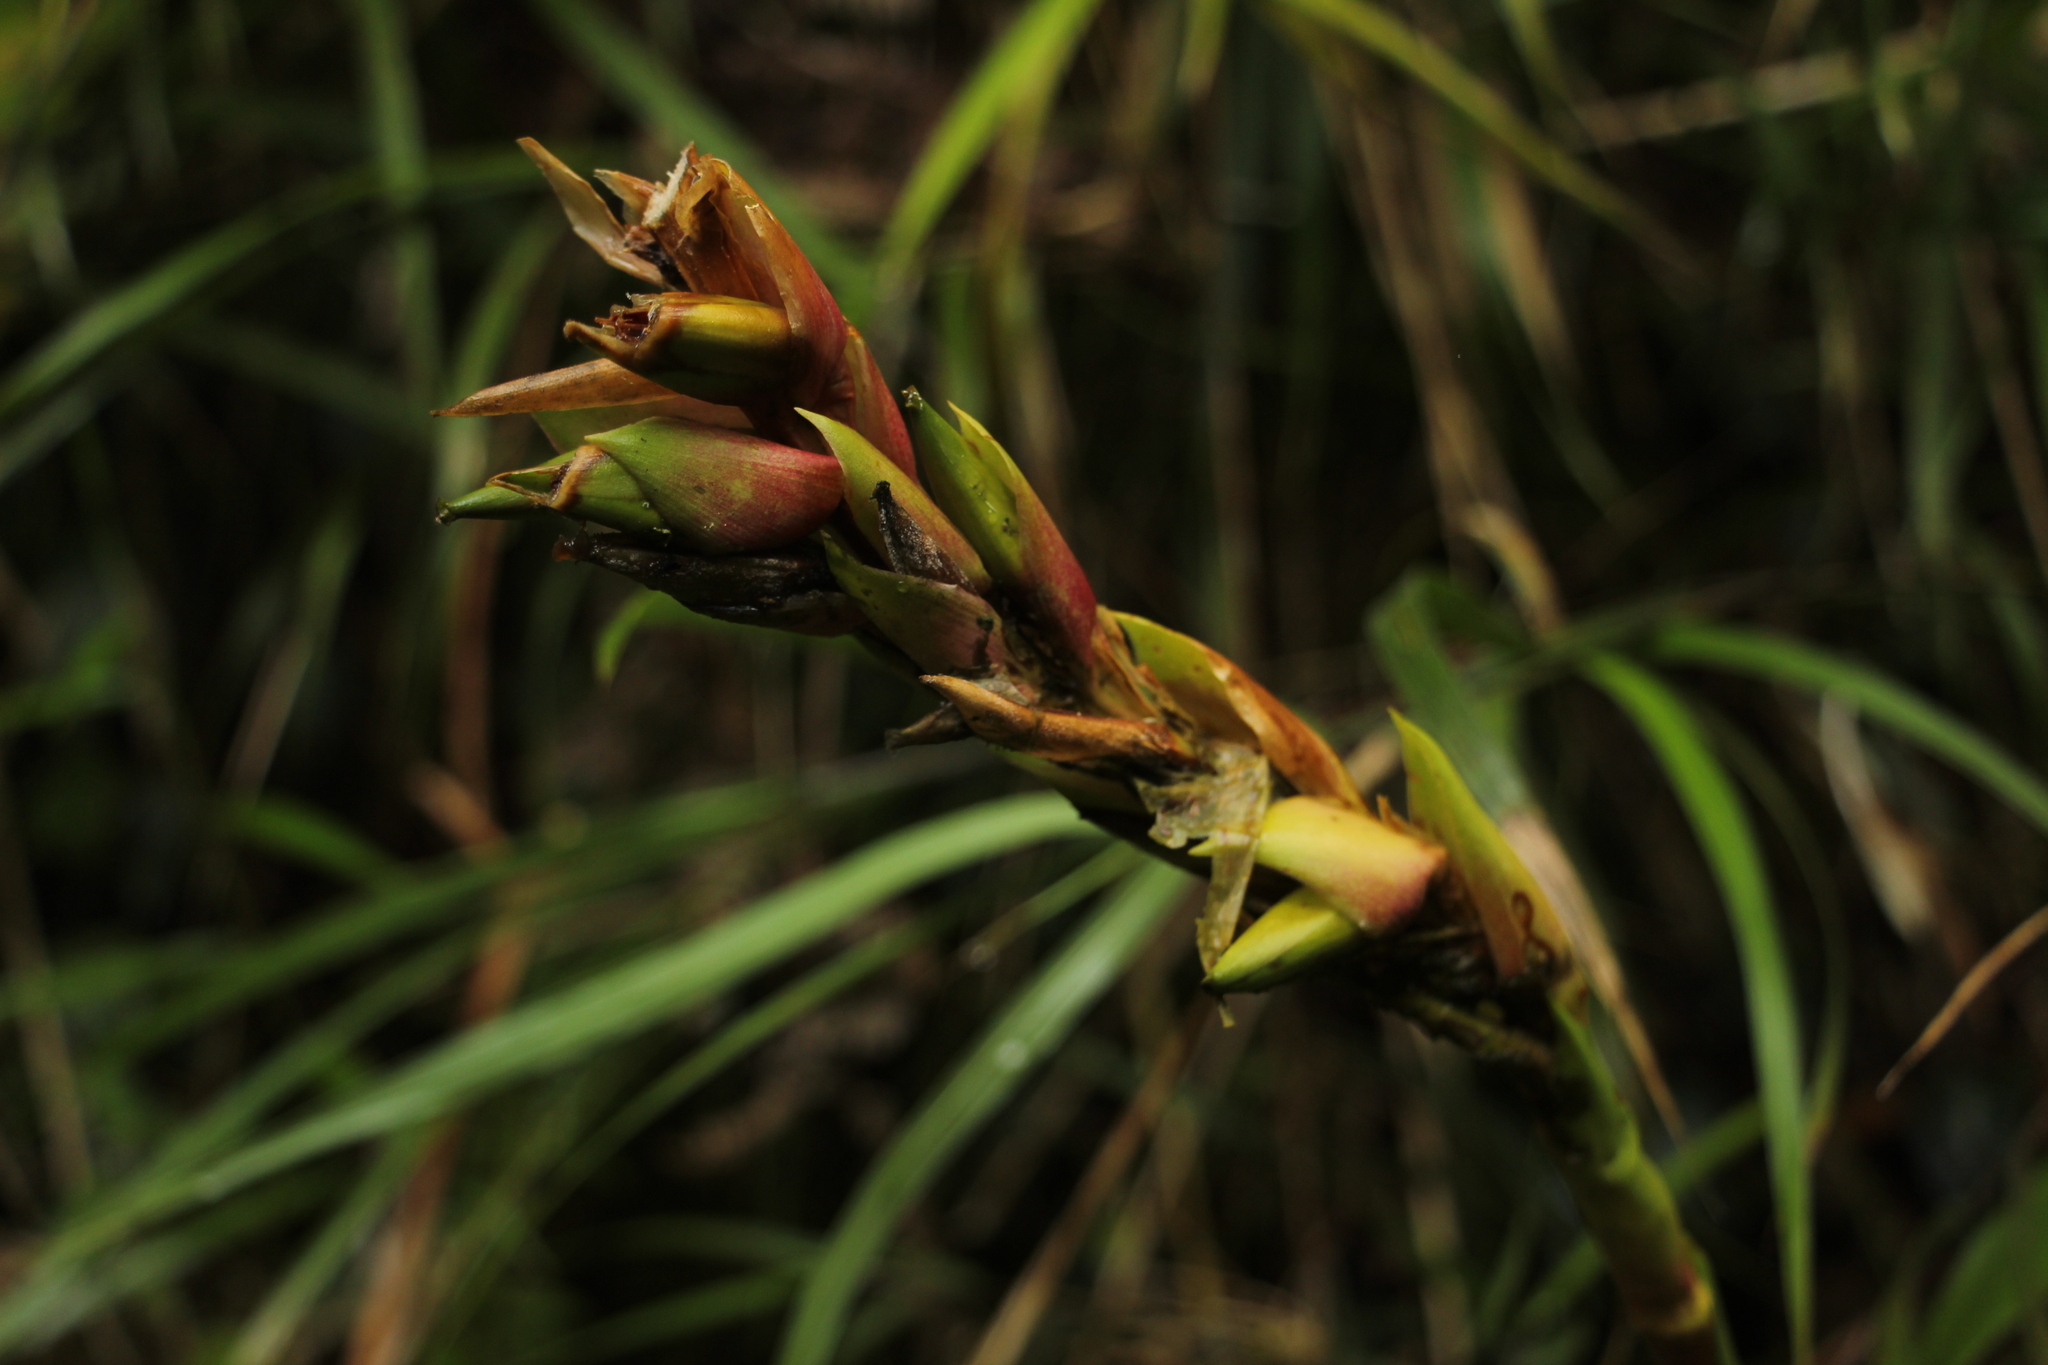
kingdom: Plantae
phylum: Tracheophyta
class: Liliopsida
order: Poales
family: Bromeliaceae
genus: Pitcairnia
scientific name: Pitcairnia maidifolia
